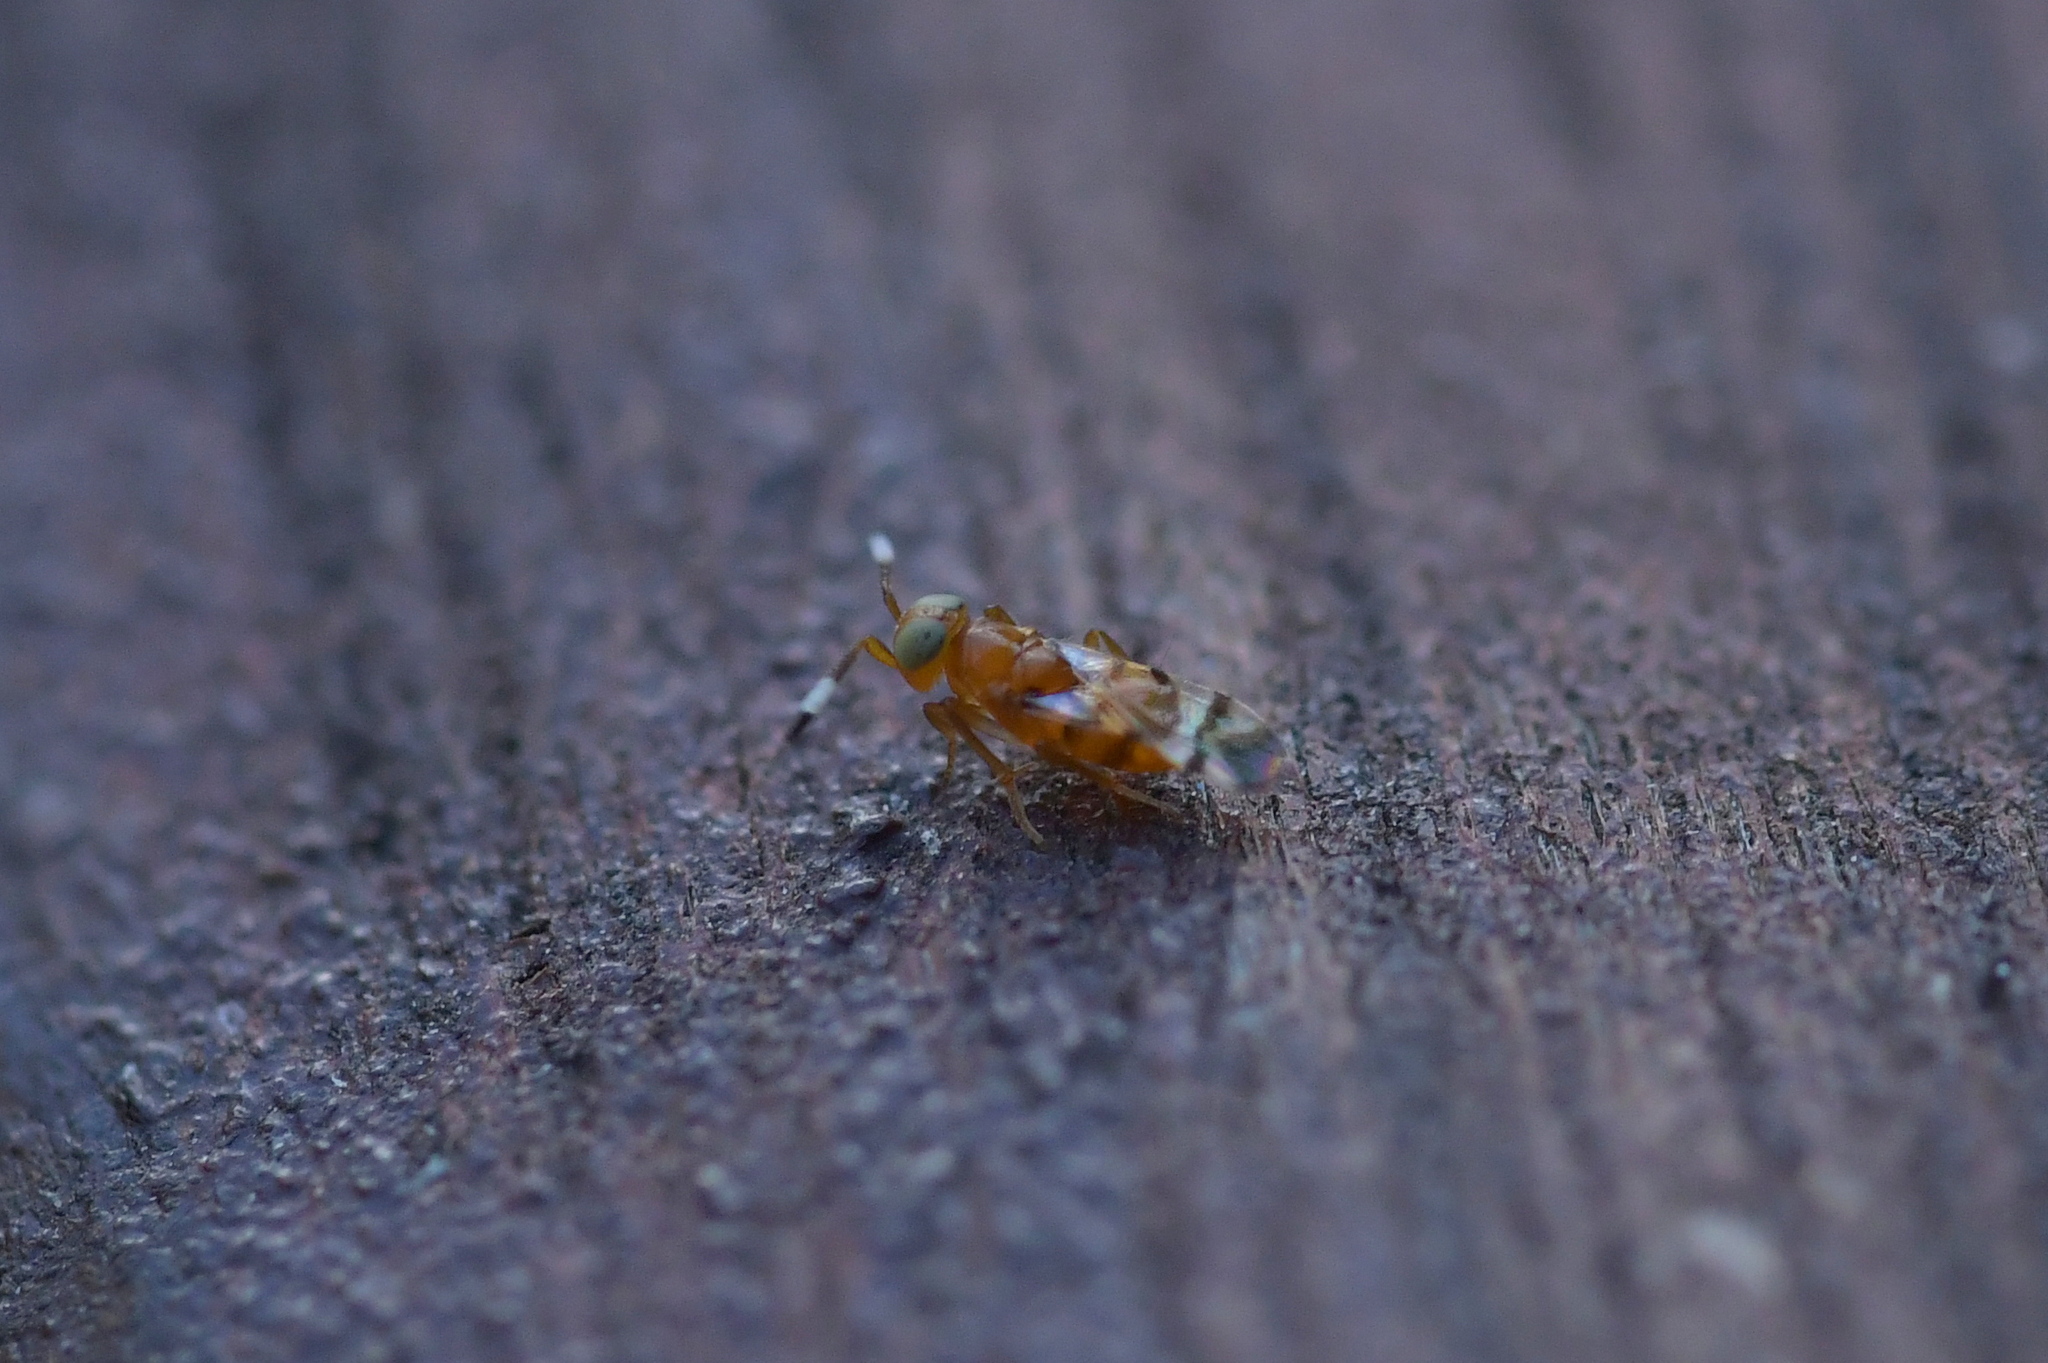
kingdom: Animalia
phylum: Arthropoda
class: Insecta
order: Hymenoptera
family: Encyrtidae
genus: Microterys
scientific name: Microterys nietneri
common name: Parasitoid wasp
